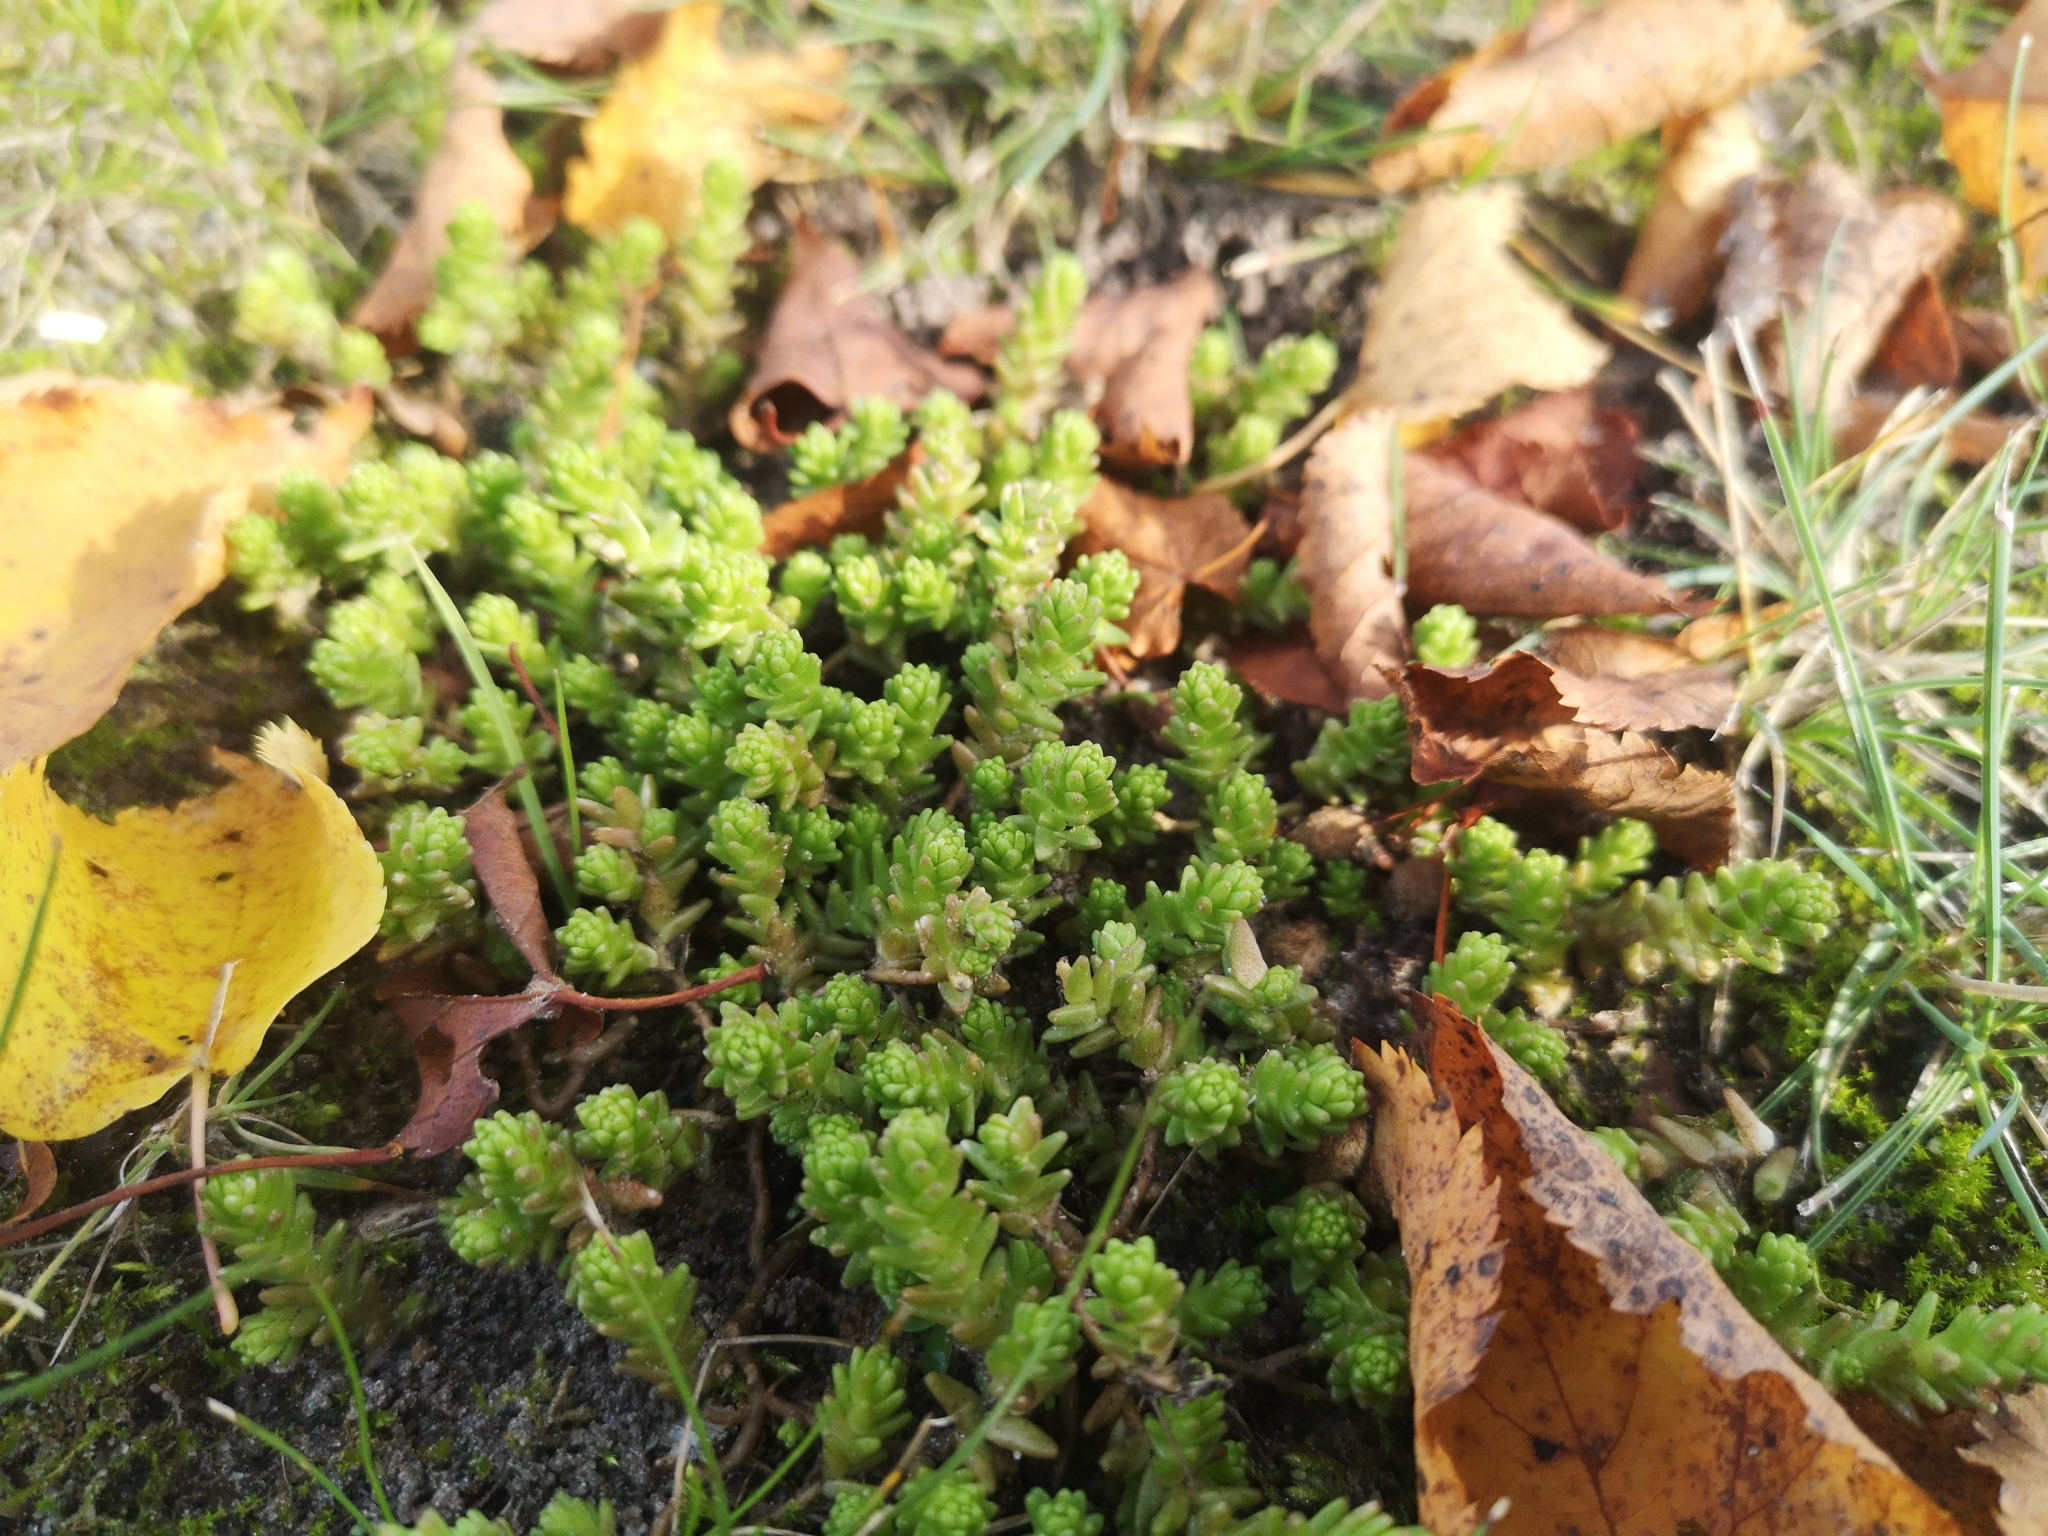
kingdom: Plantae
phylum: Tracheophyta
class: Magnoliopsida
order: Saxifragales
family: Crassulaceae
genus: Sedum
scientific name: Sedum acre
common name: Biting stonecrop
